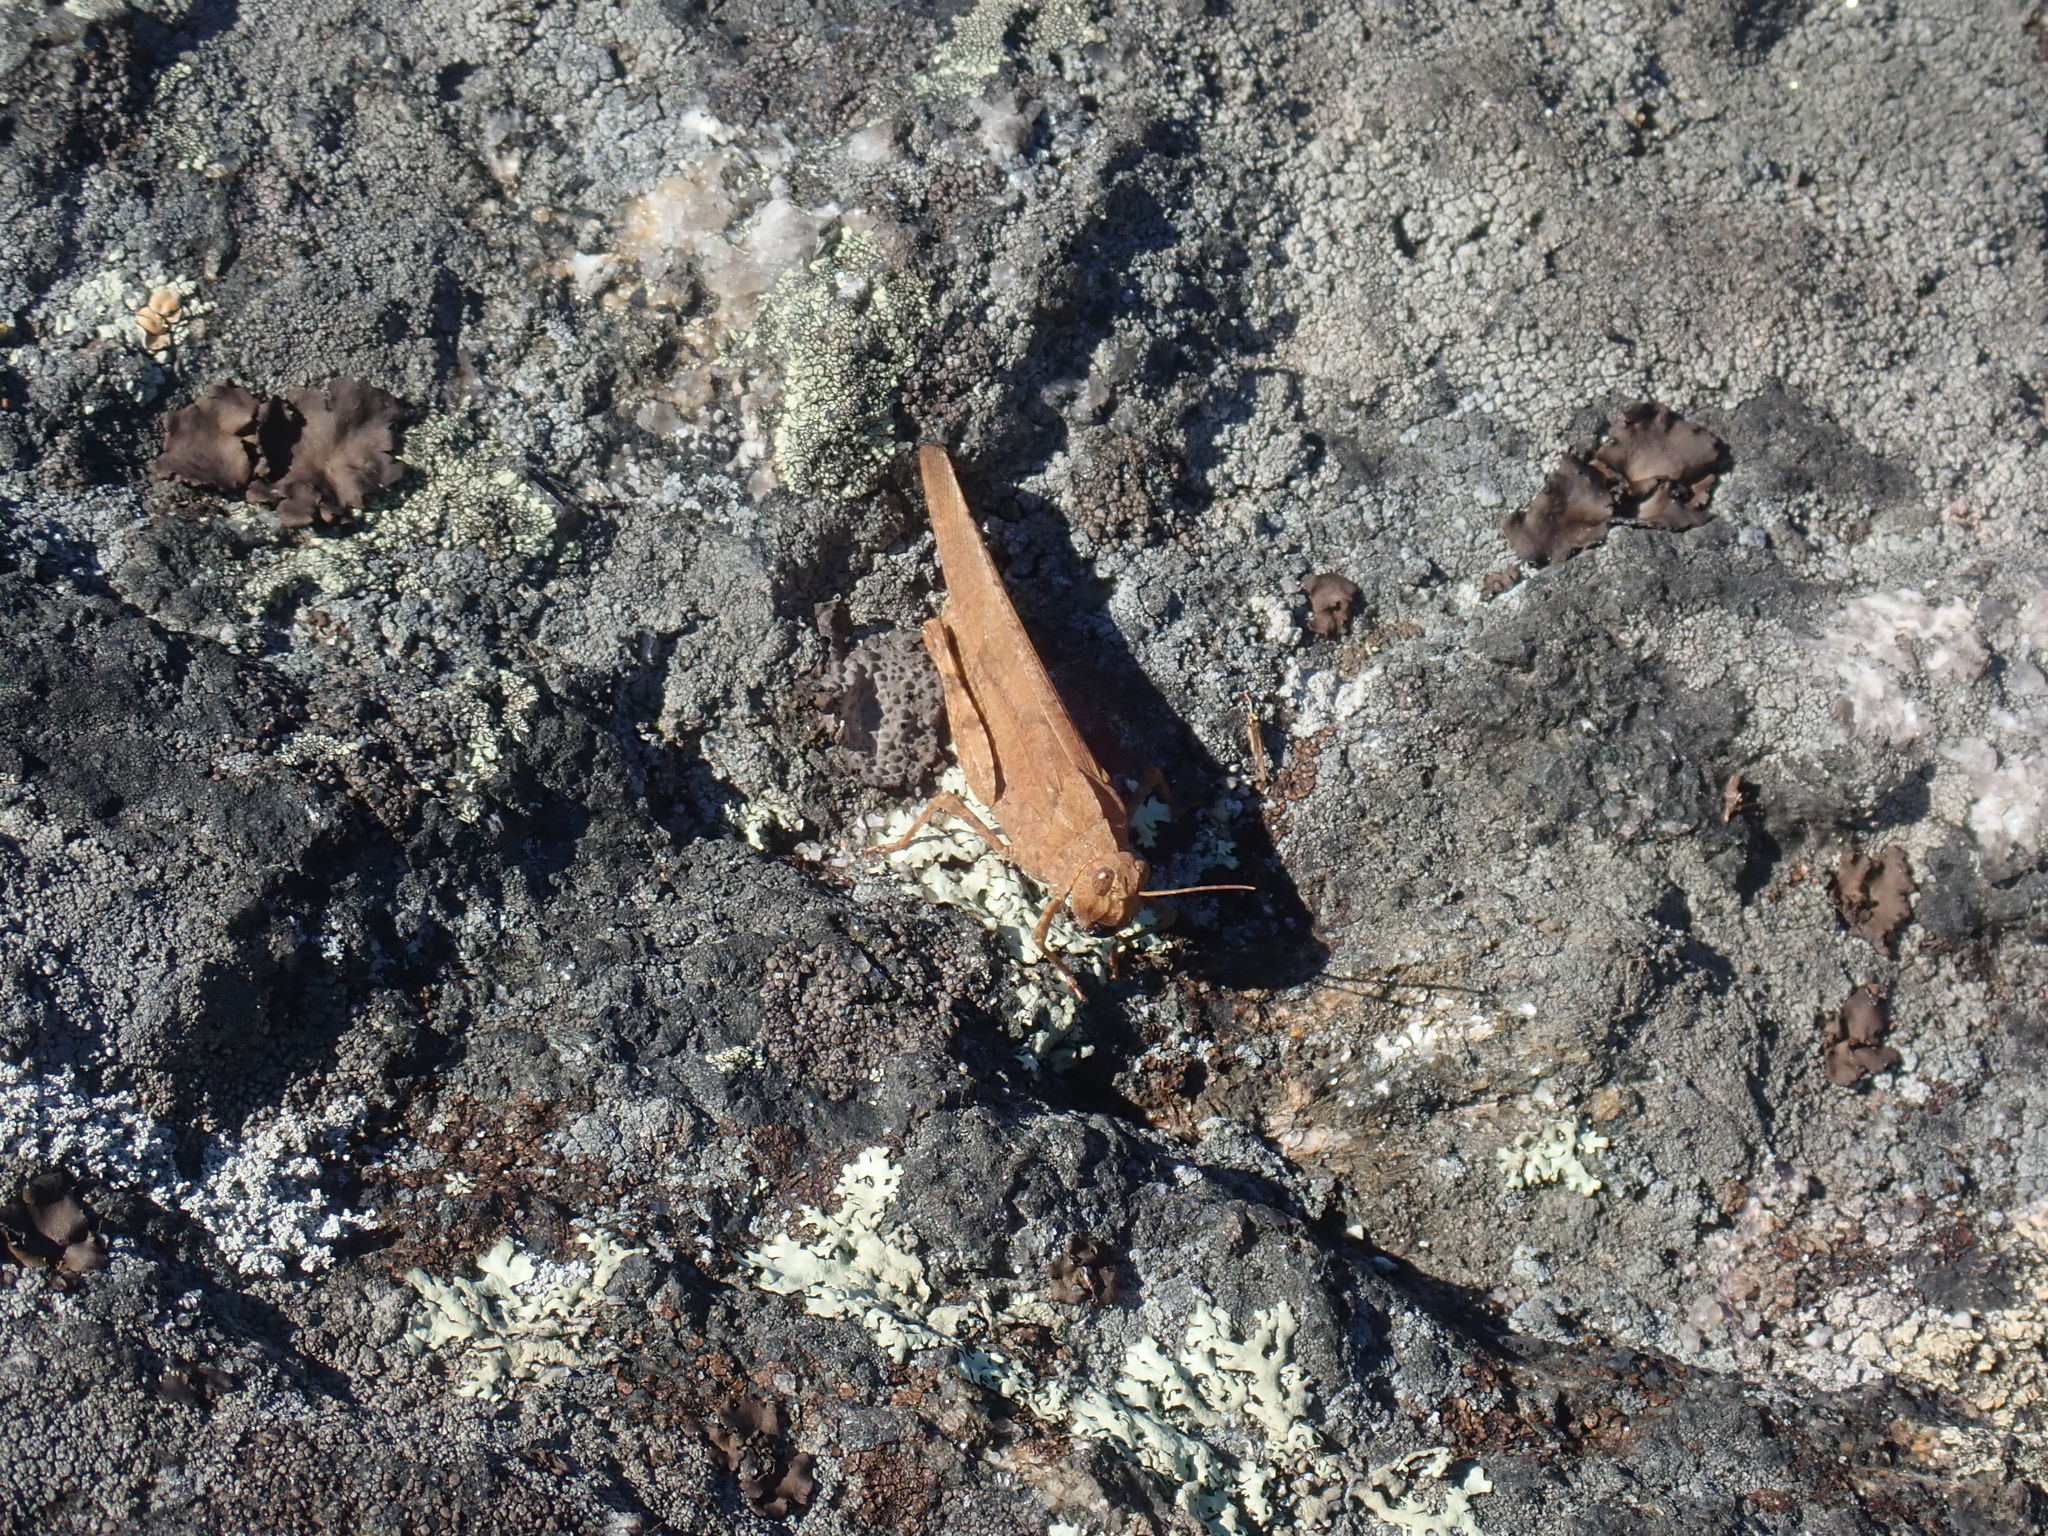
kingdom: Animalia
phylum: Arthropoda
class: Insecta
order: Orthoptera
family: Acrididae
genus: Dissosteira
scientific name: Dissosteira carolina
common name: Carolina grasshopper
